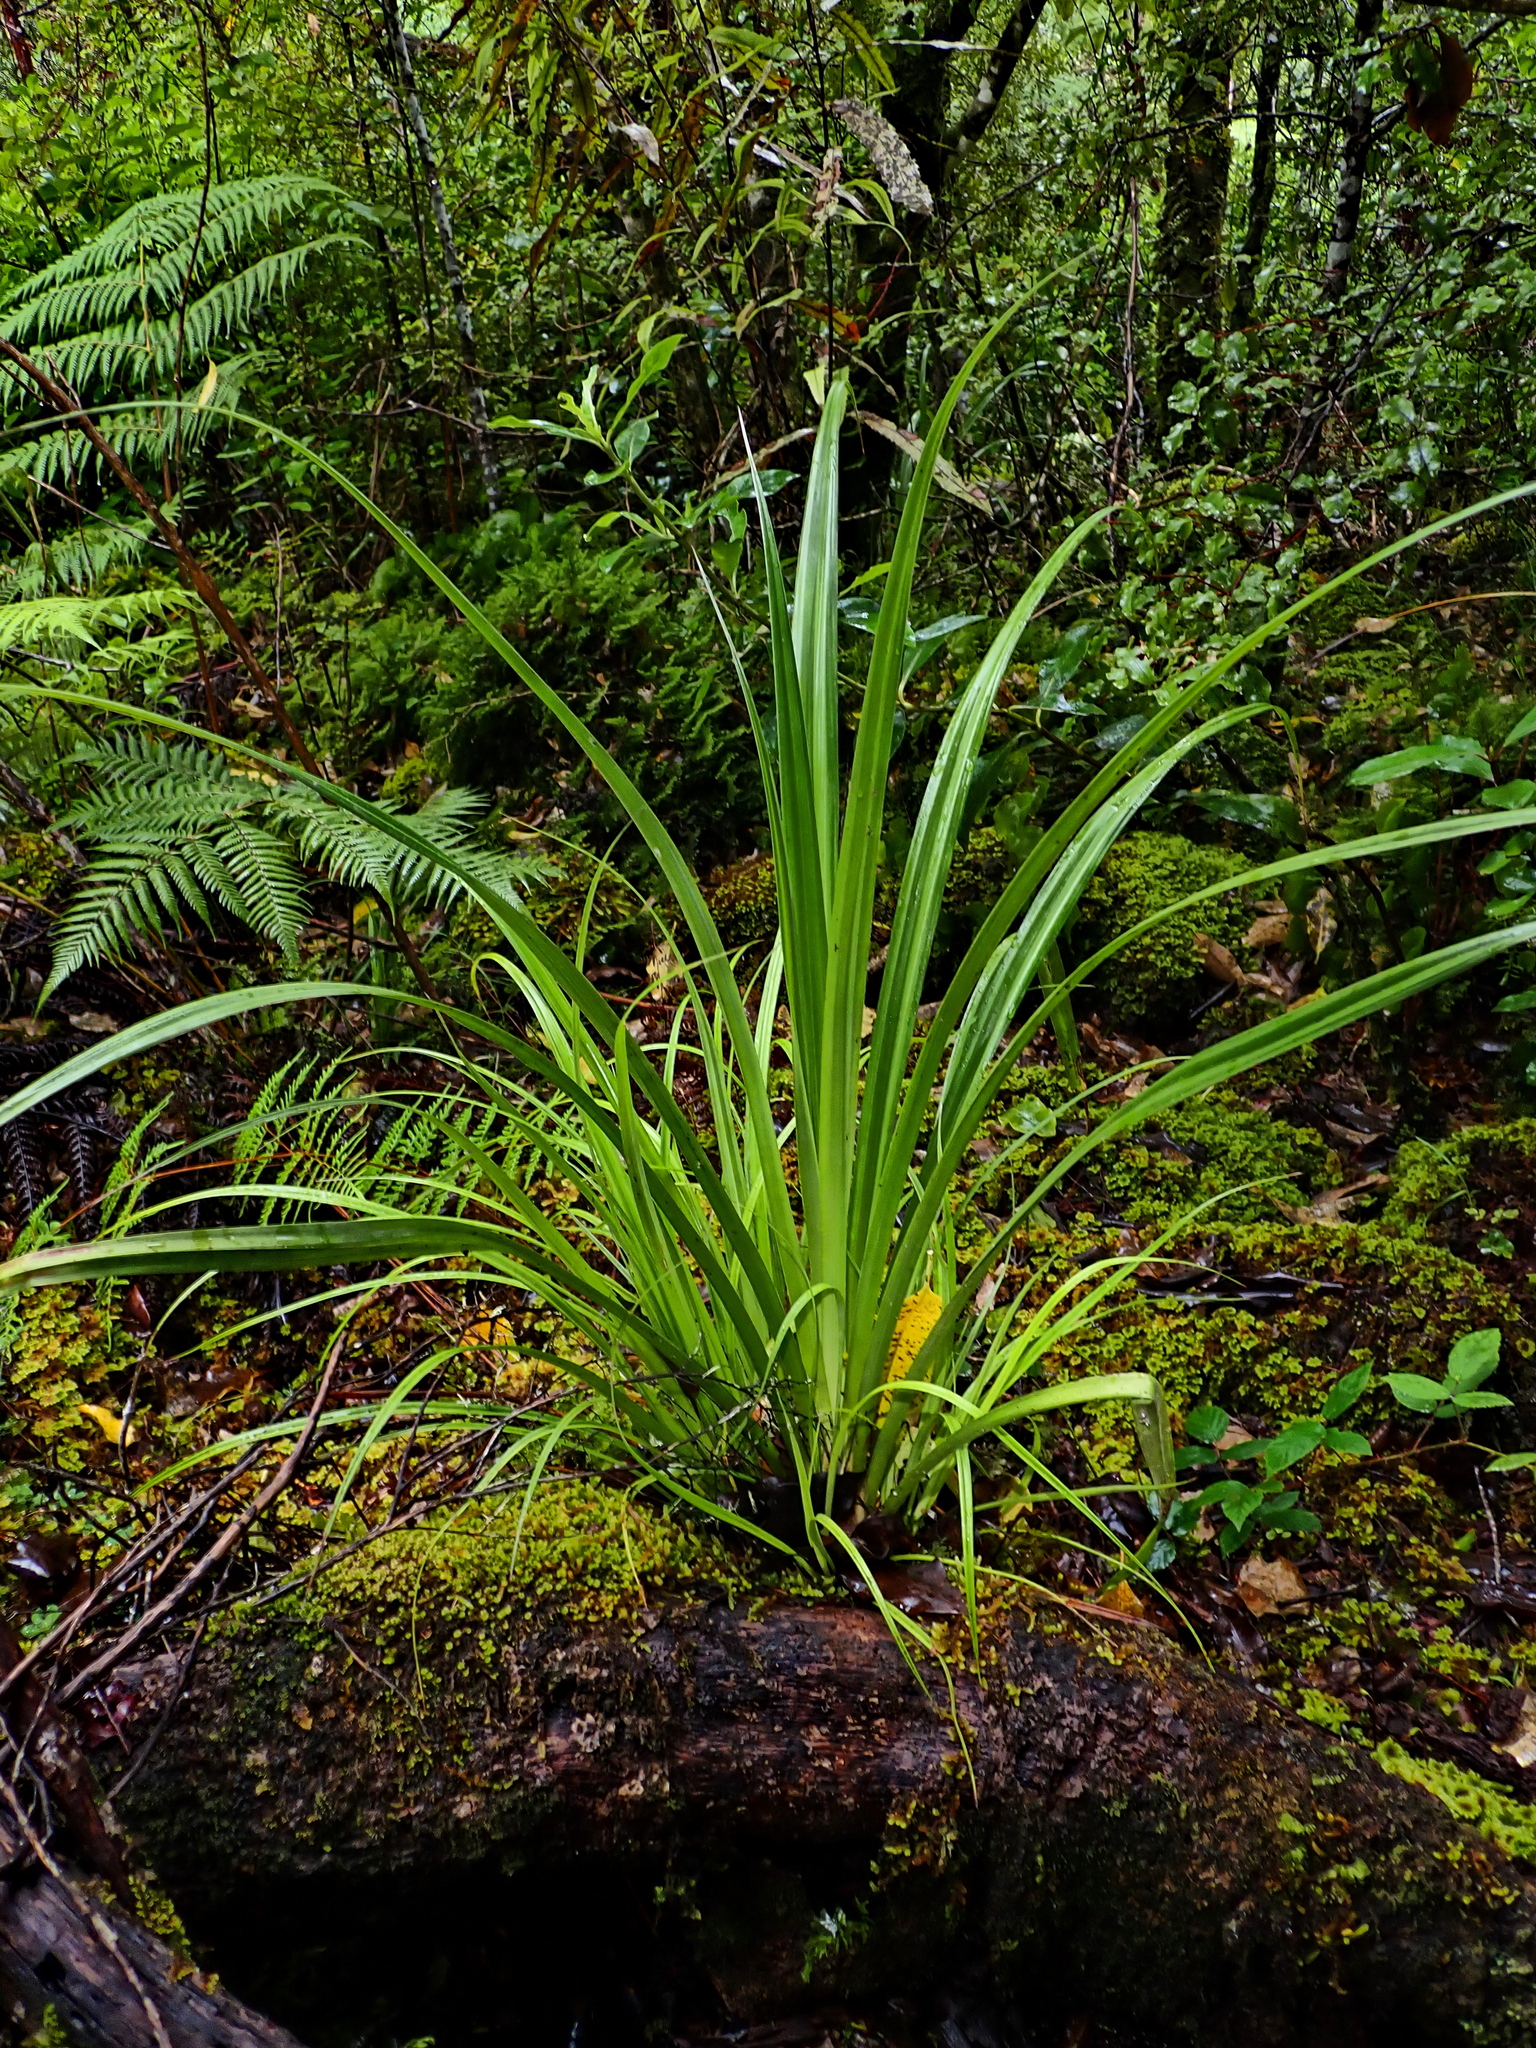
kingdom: Plantae
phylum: Tracheophyta
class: Liliopsida
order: Asparagales
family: Asteliaceae
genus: Astelia
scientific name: Astelia fragrans
